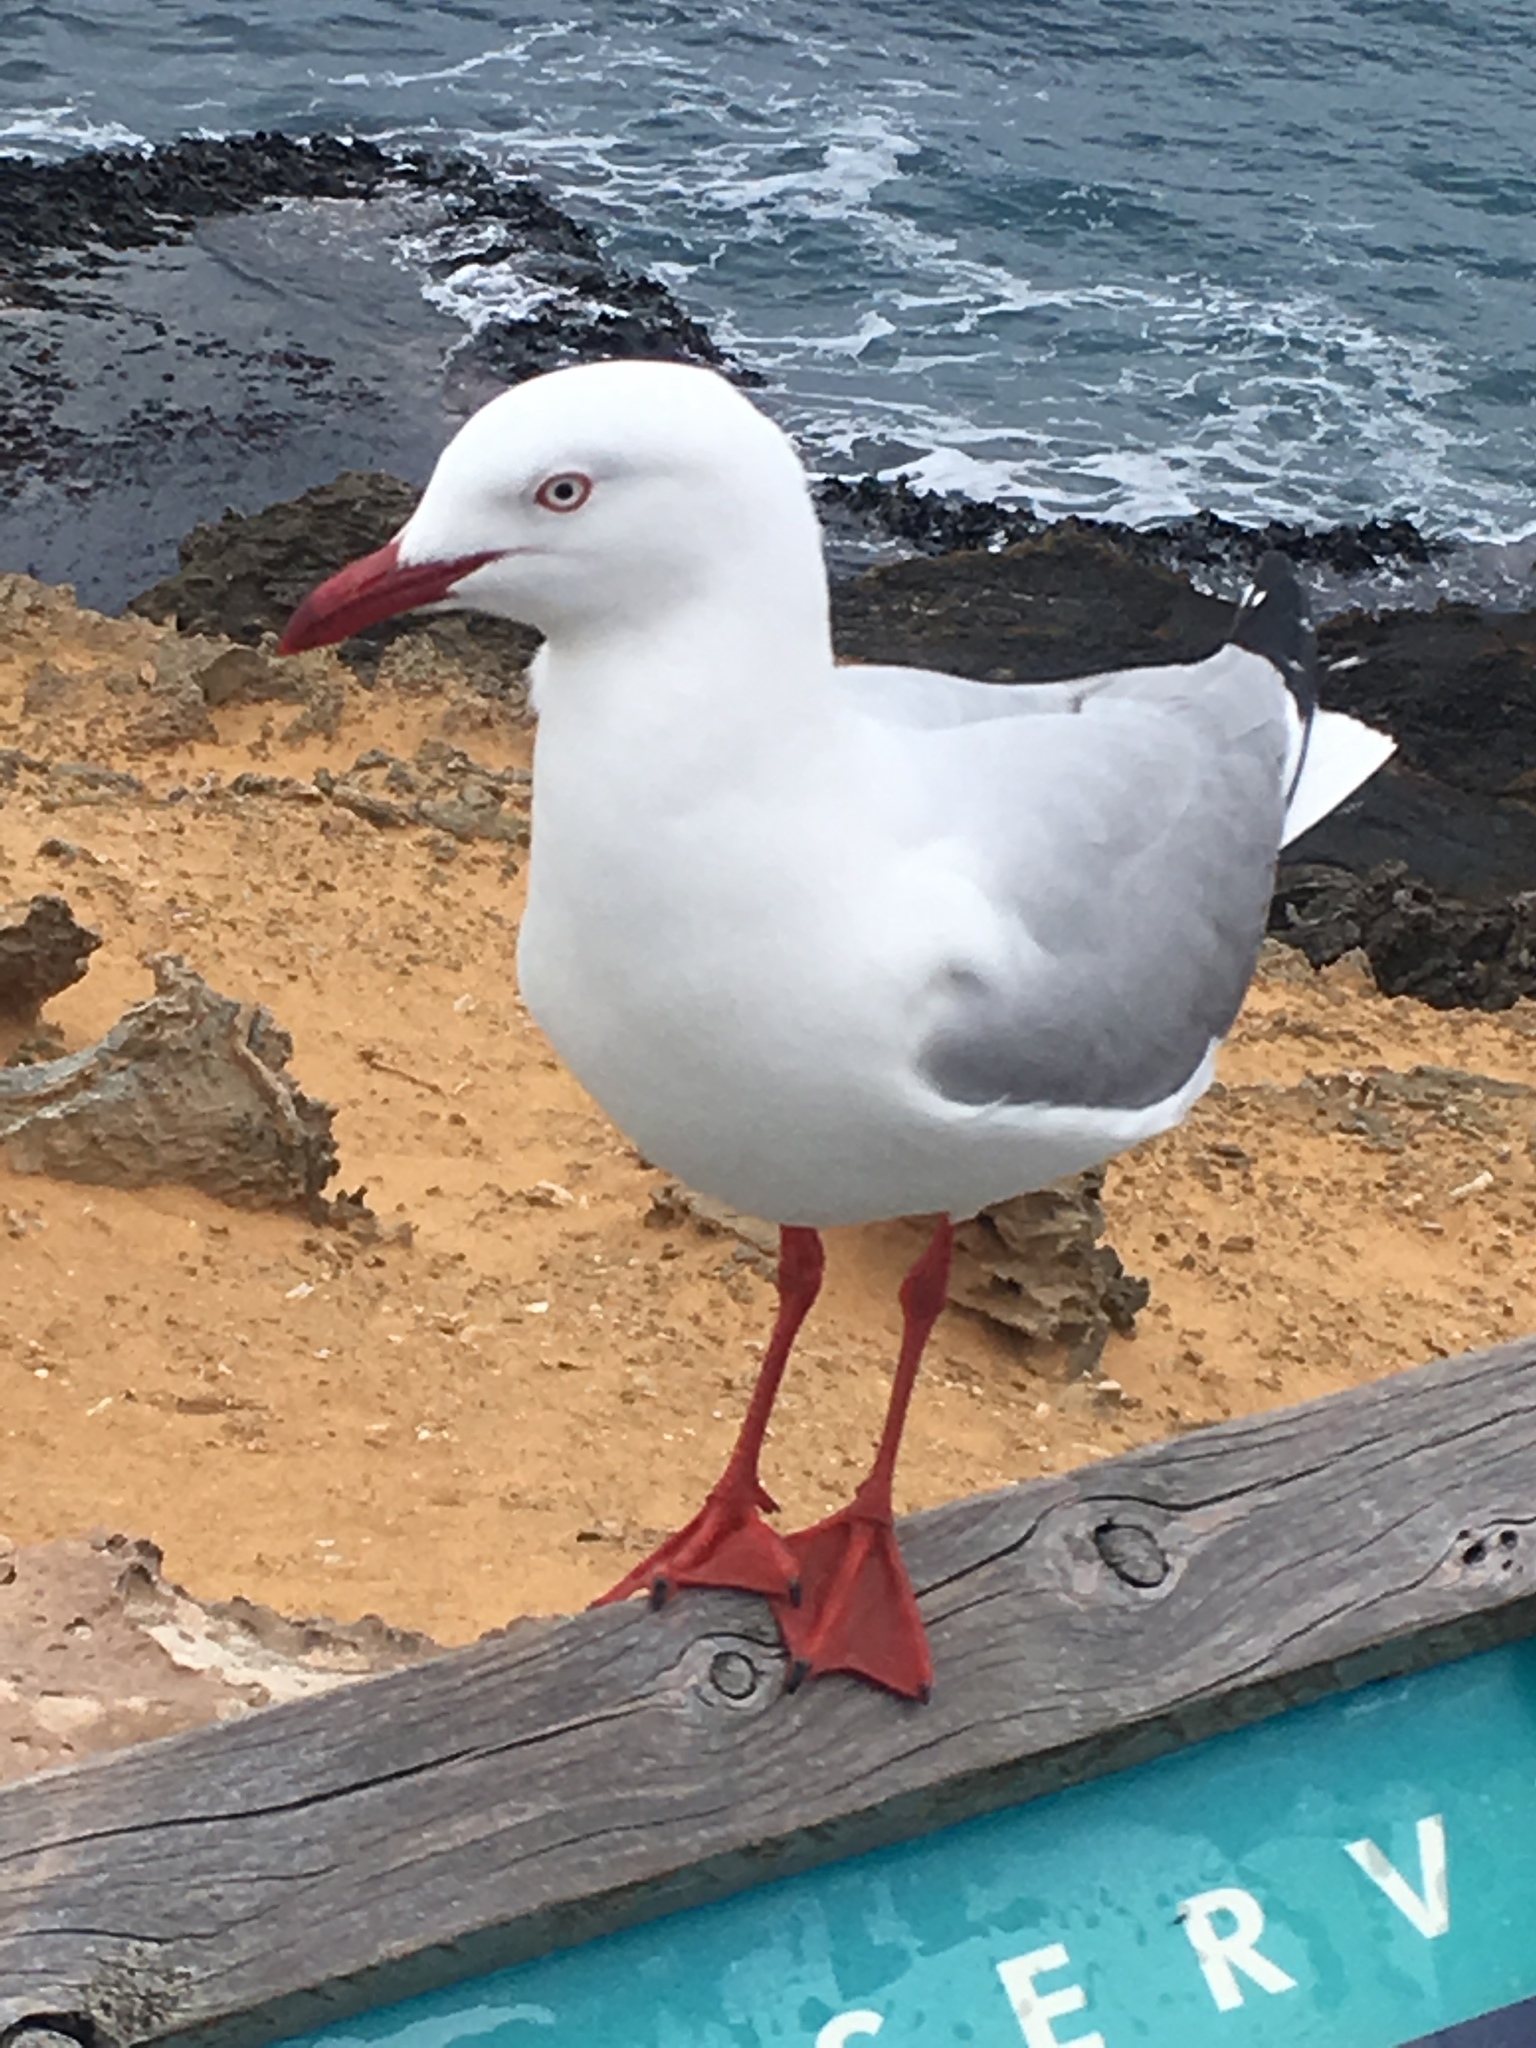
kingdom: Animalia
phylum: Chordata
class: Aves
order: Charadriiformes
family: Laridae
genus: Chroicocephalus
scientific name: Chroicocephalus novaehollandiae
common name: Silver gull
